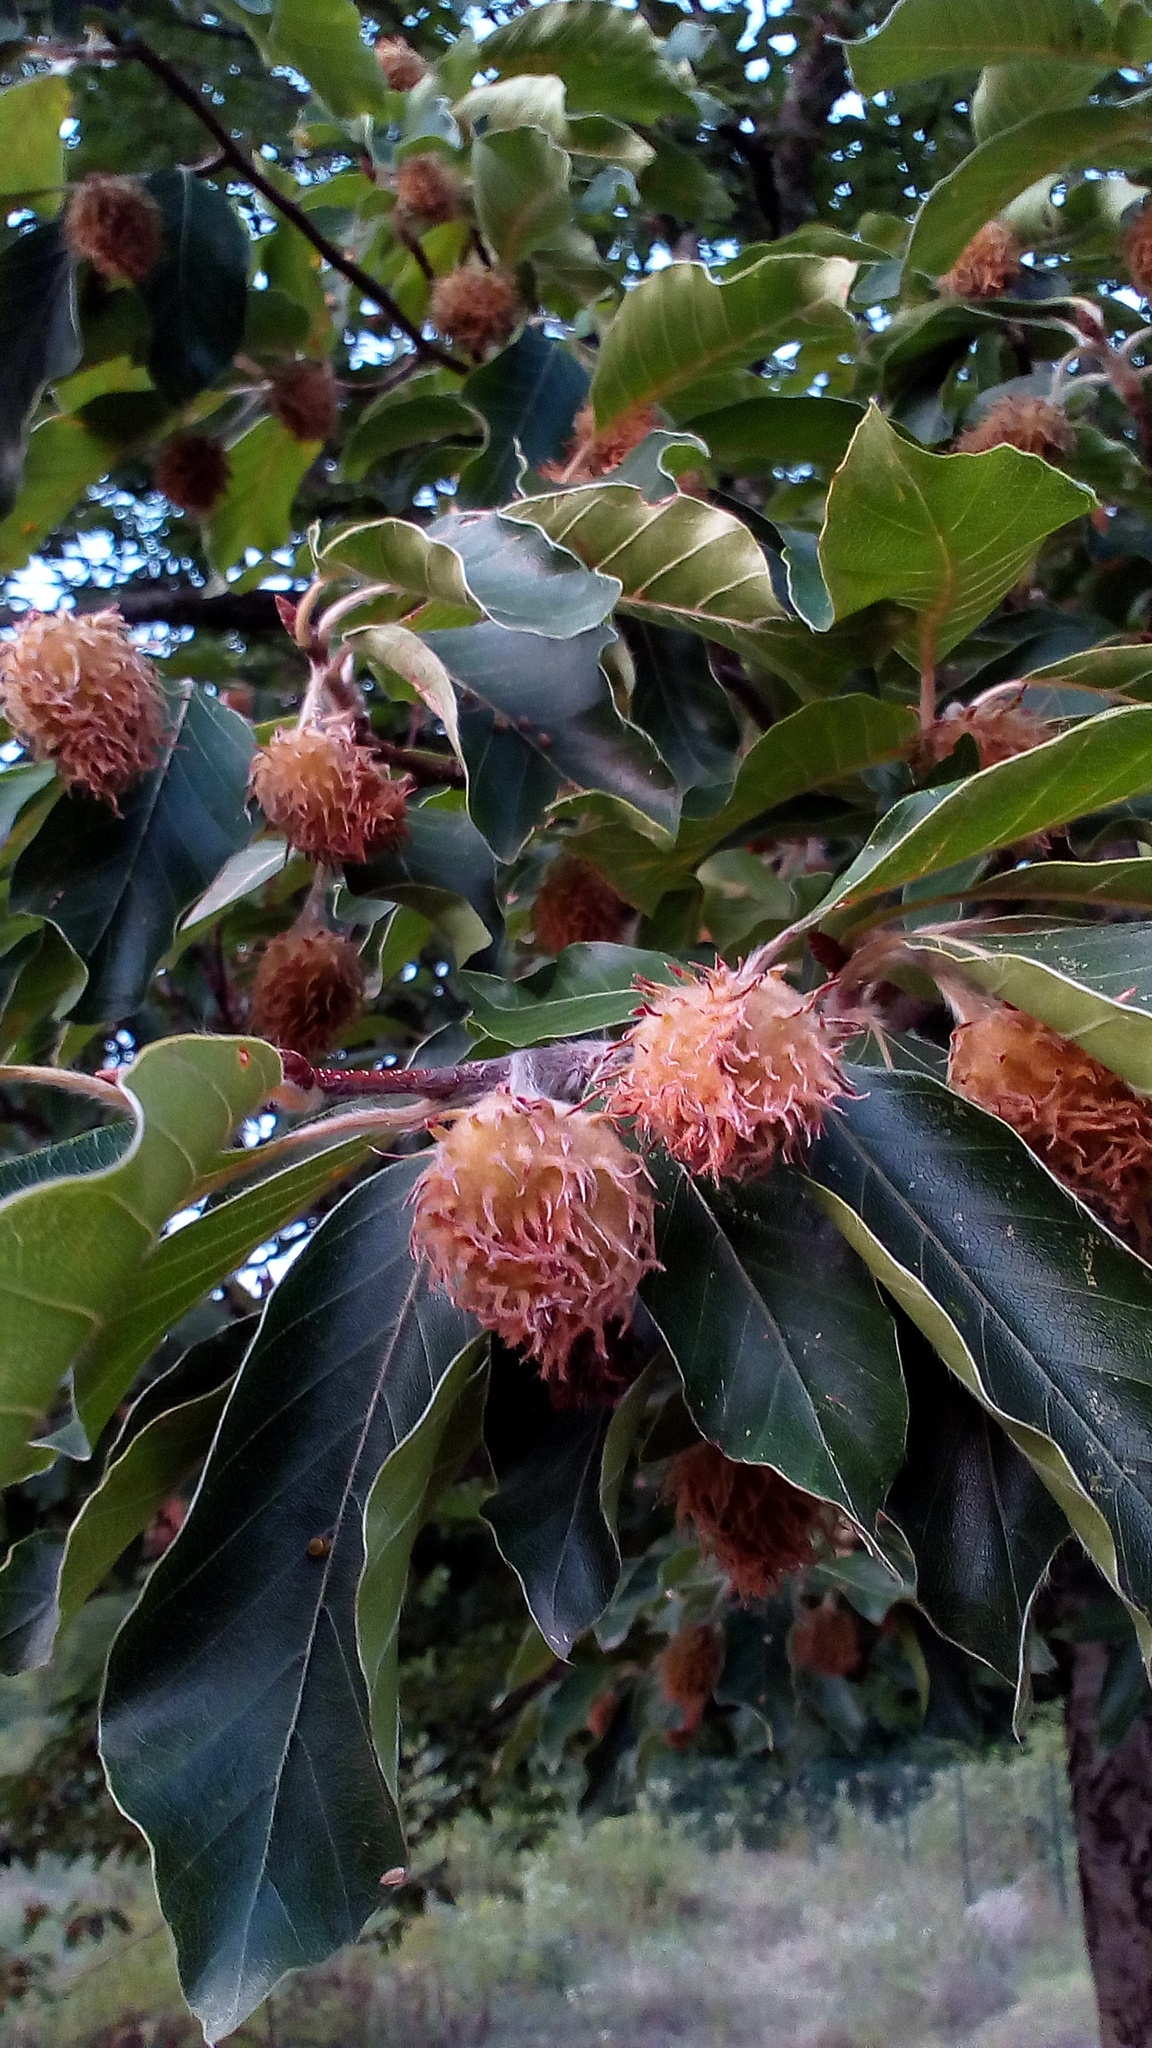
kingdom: Plantae
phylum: Tracheophyta
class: Magnoliopsida
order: Fagales
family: Fagaceae
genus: Fagus
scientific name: Fagus orientalis
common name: Oriental beech
